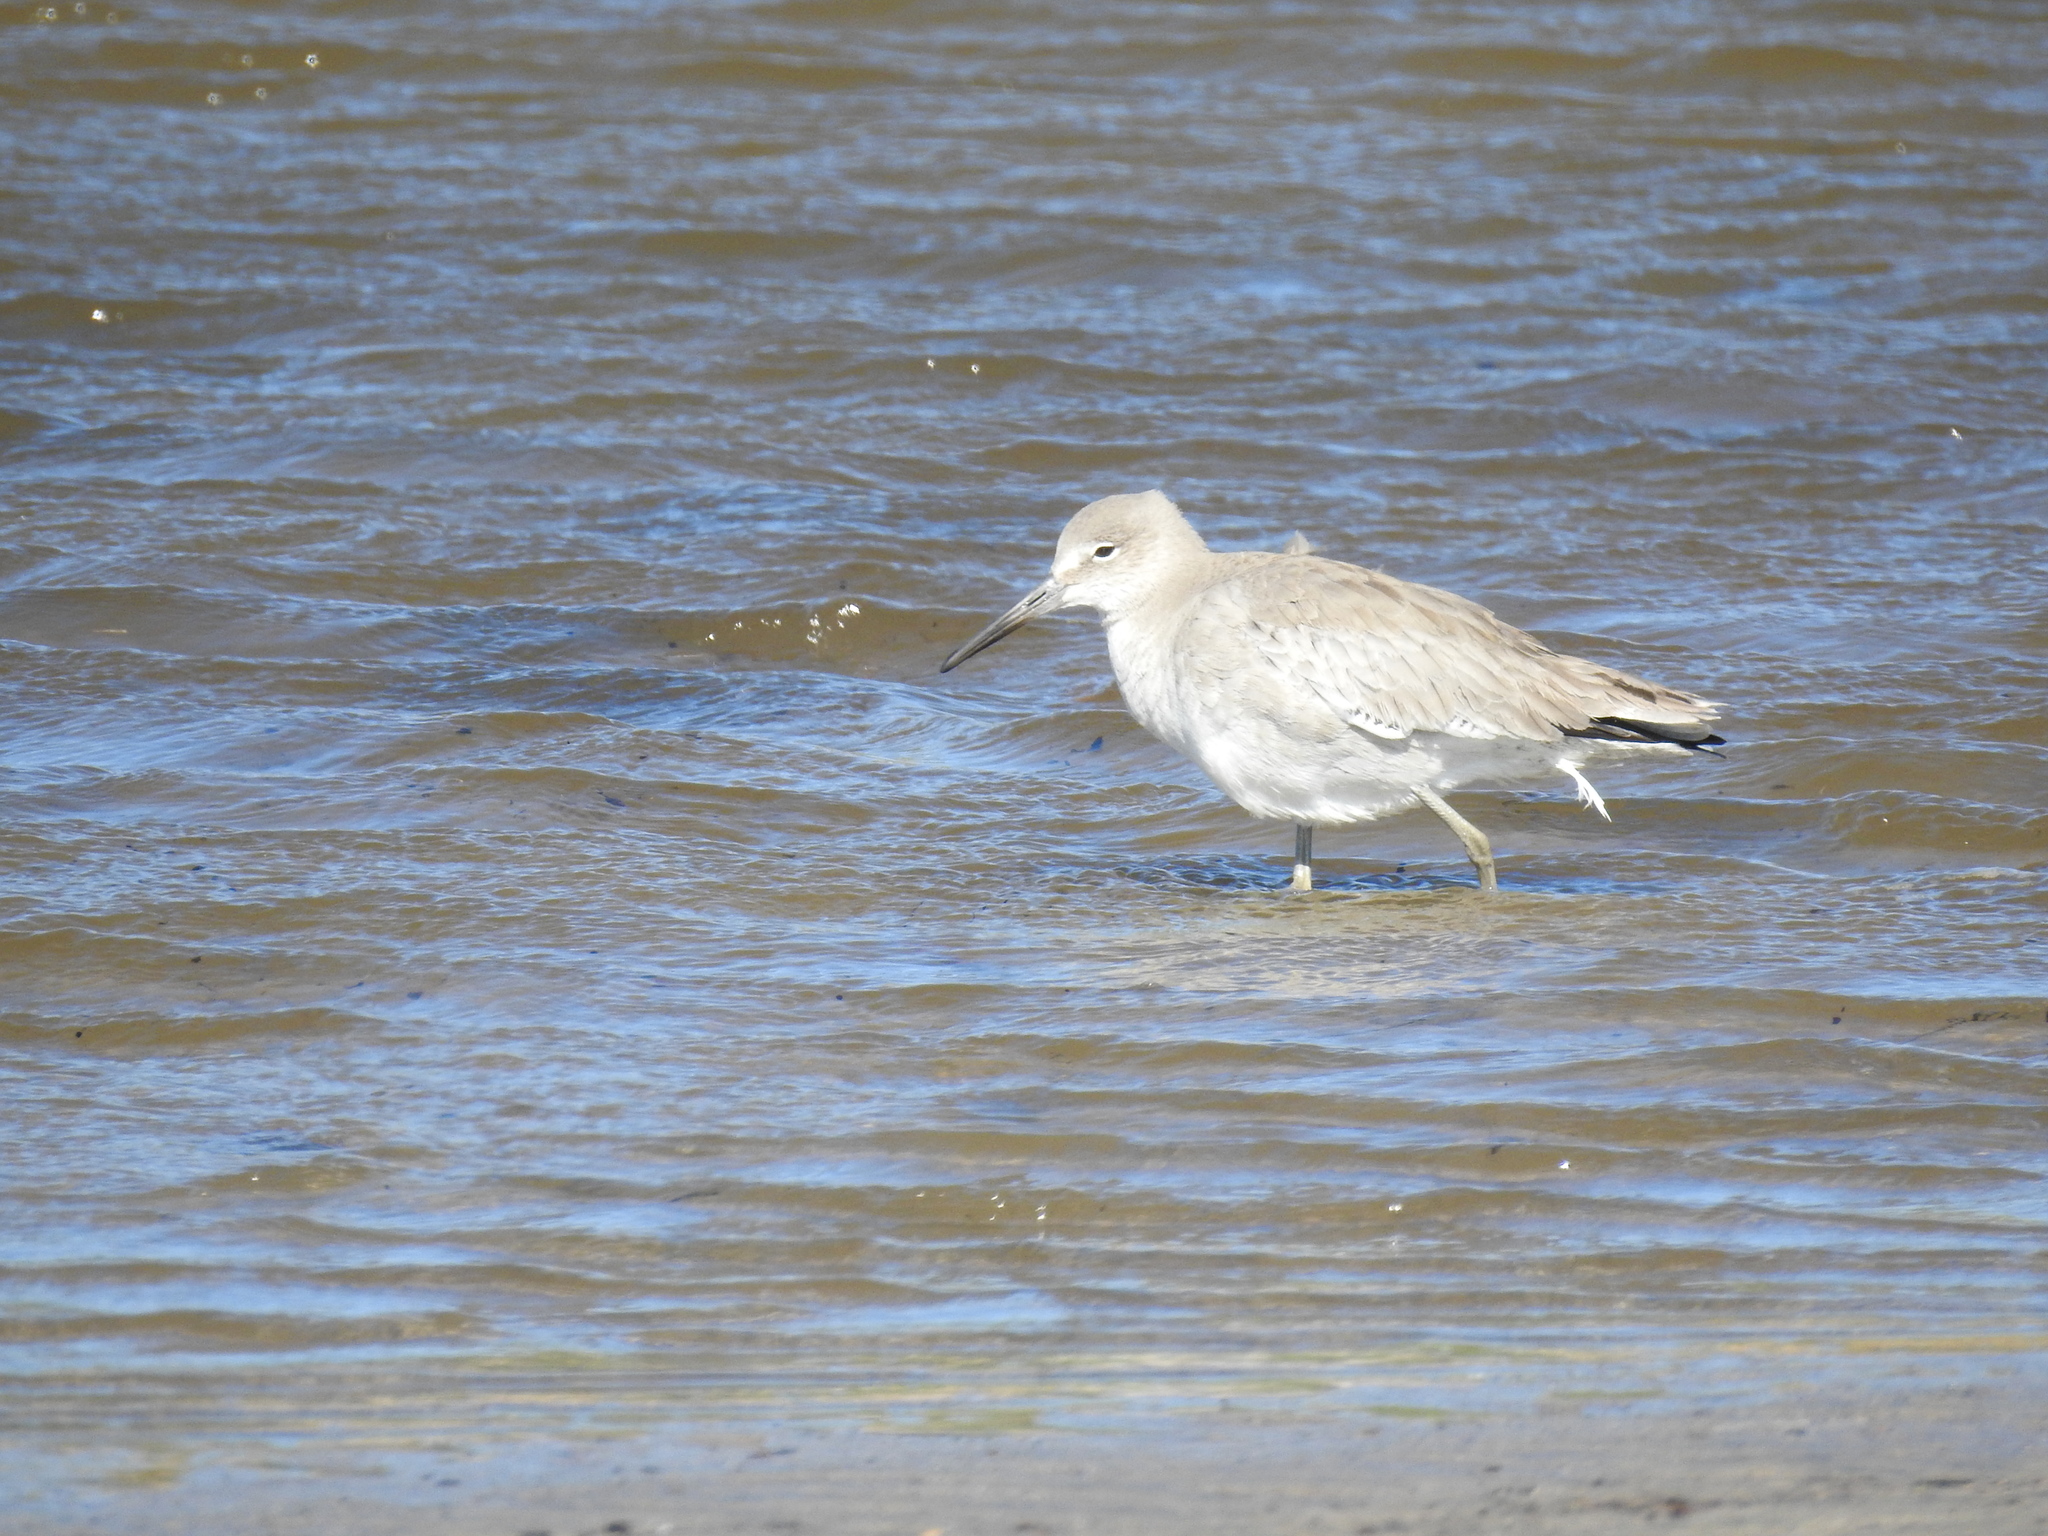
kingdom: Animalia
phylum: Chordata
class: Aves
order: Charadriiformes
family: Scolopacidae
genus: Tringa
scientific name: Tringa semipalmata
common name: Willet
